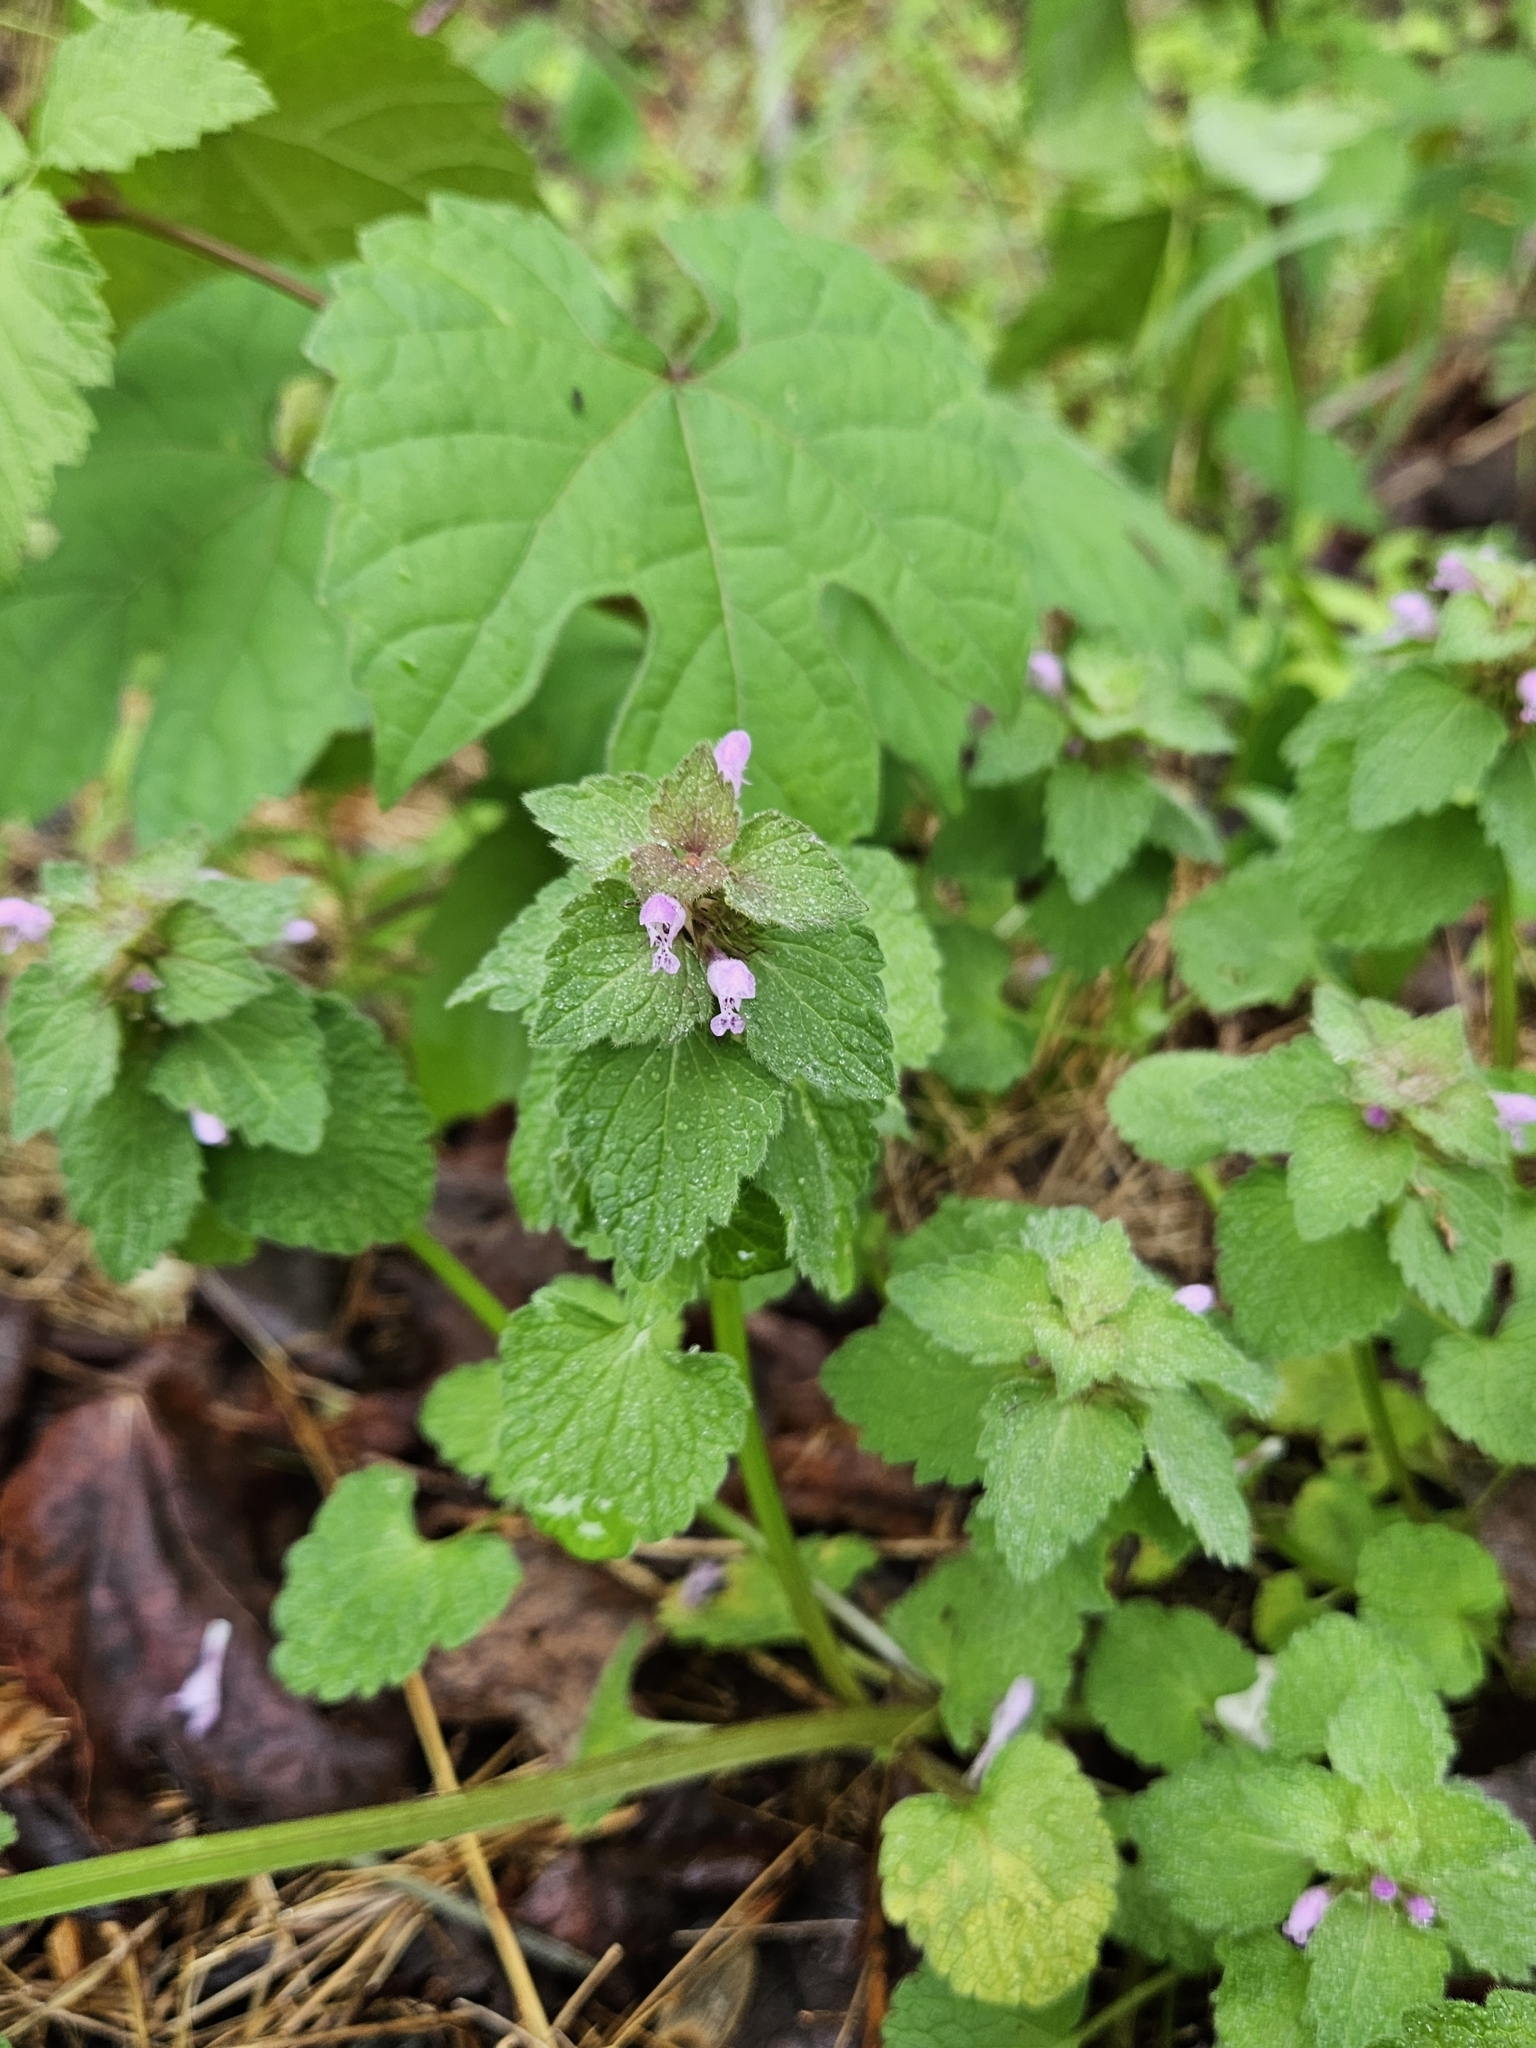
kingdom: Plantae
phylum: Tracheophyta
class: Magnoliopsida
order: Lamiales
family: Lamiaceae
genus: Lamium
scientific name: Lamium purpureum
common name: Red dead-nettle
